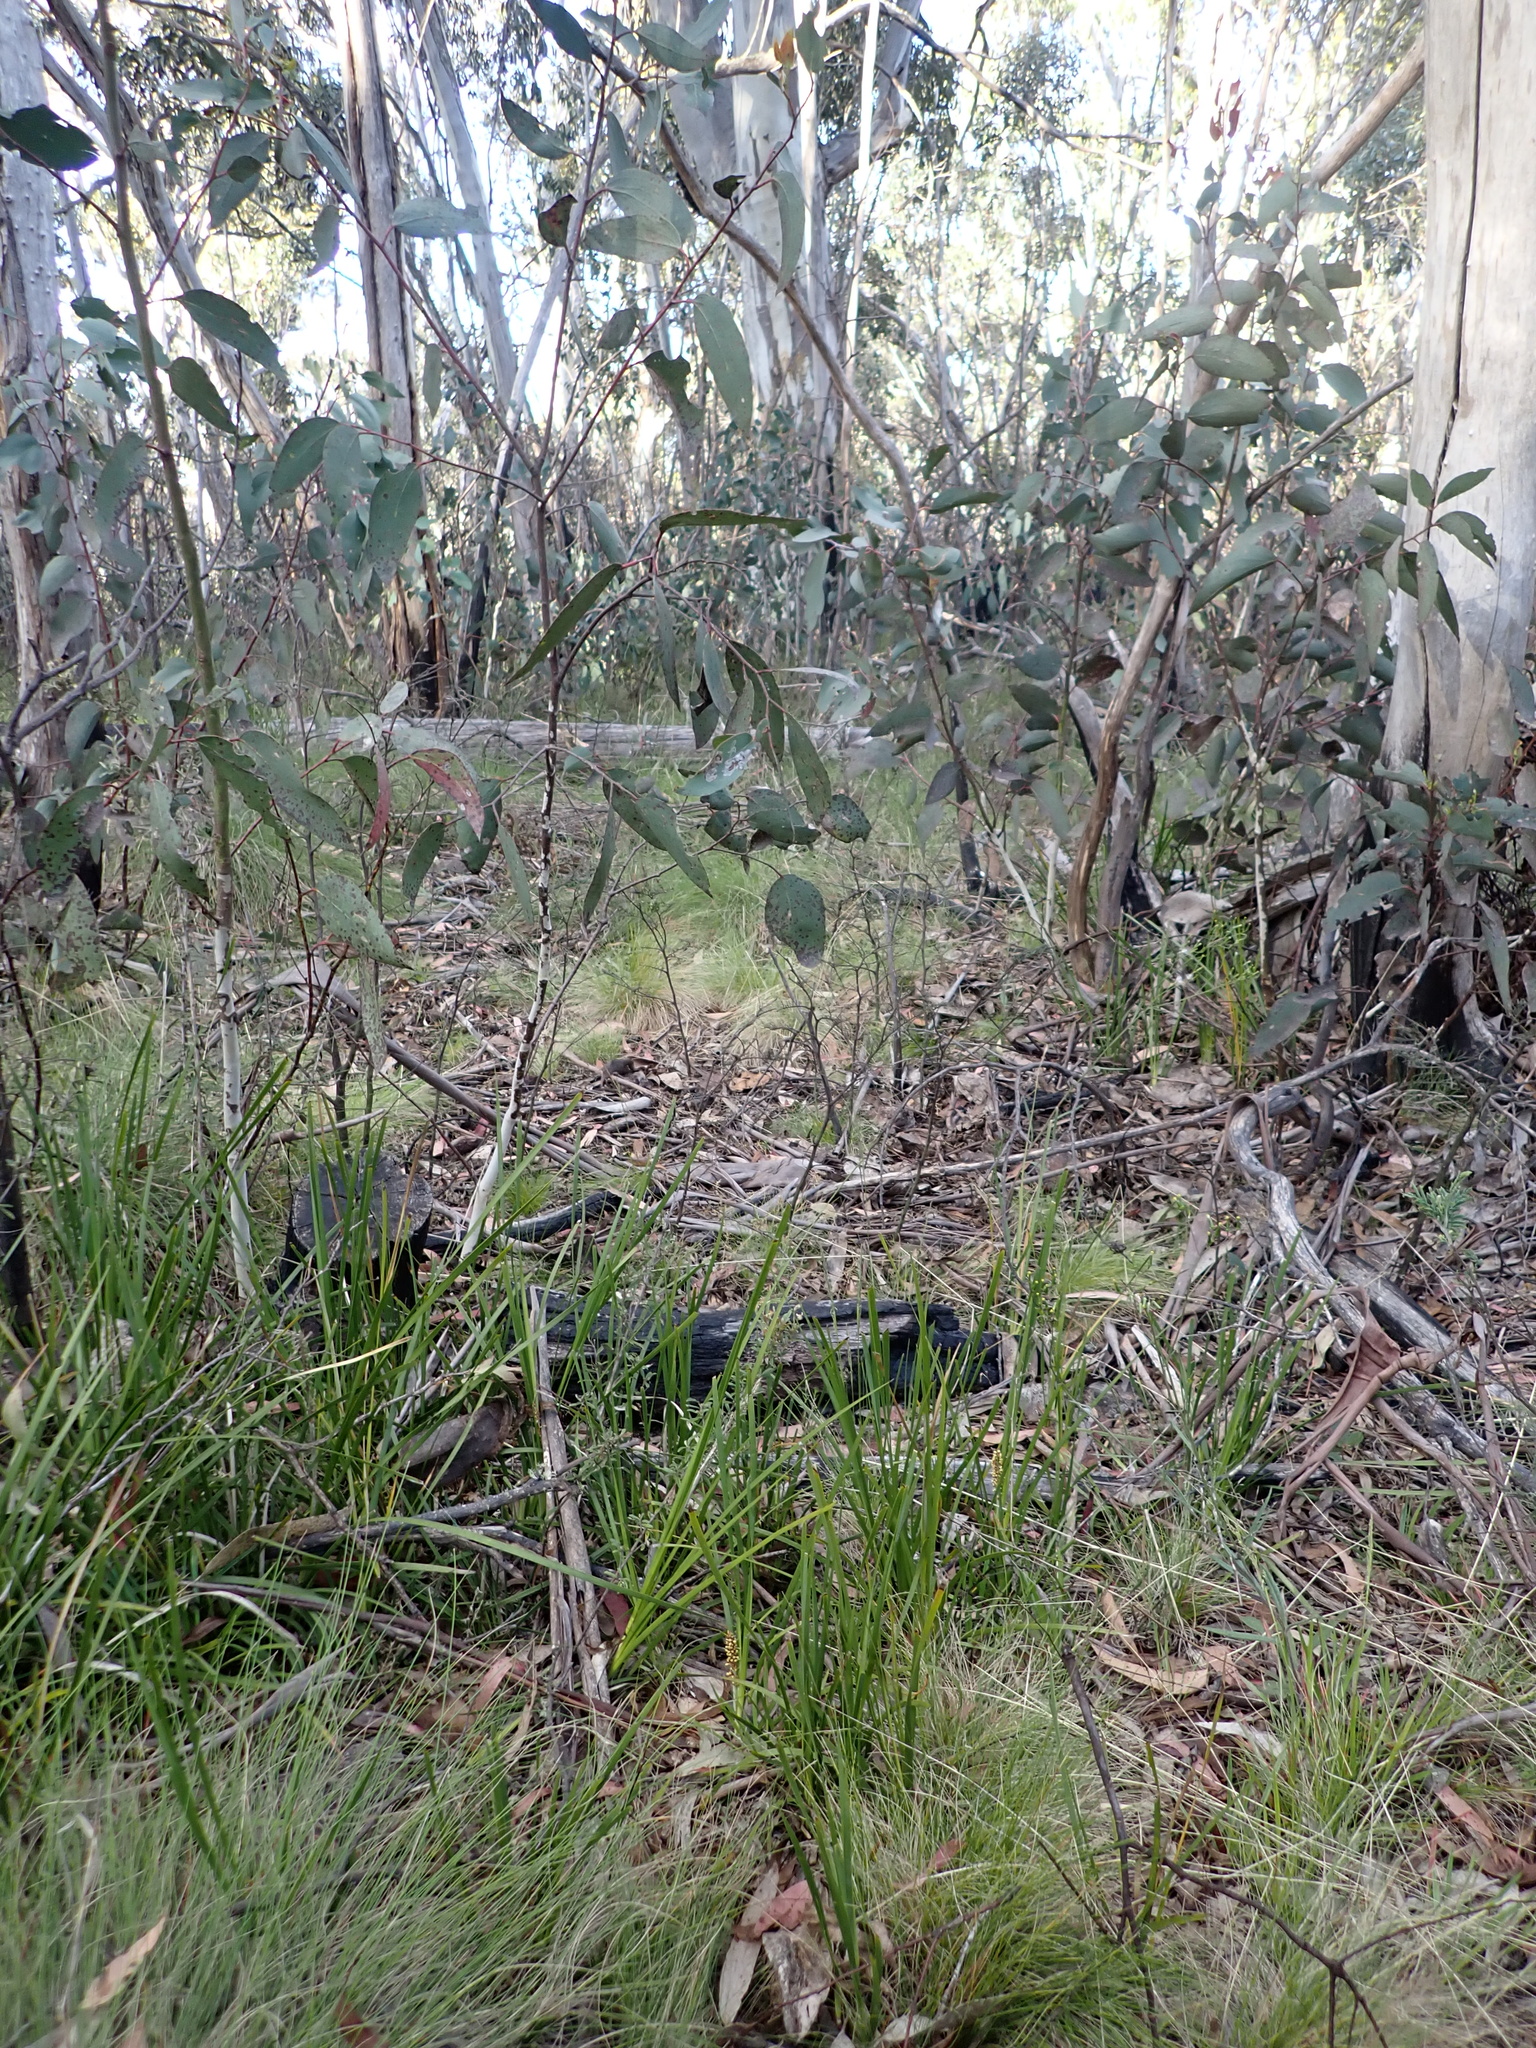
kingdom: Plantae
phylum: Tracheophyta
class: Liliopsida
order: Asparagales
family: Asparagaceae
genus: Lomandra
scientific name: Lomandra longifolia
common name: Longleaf mat-rush
